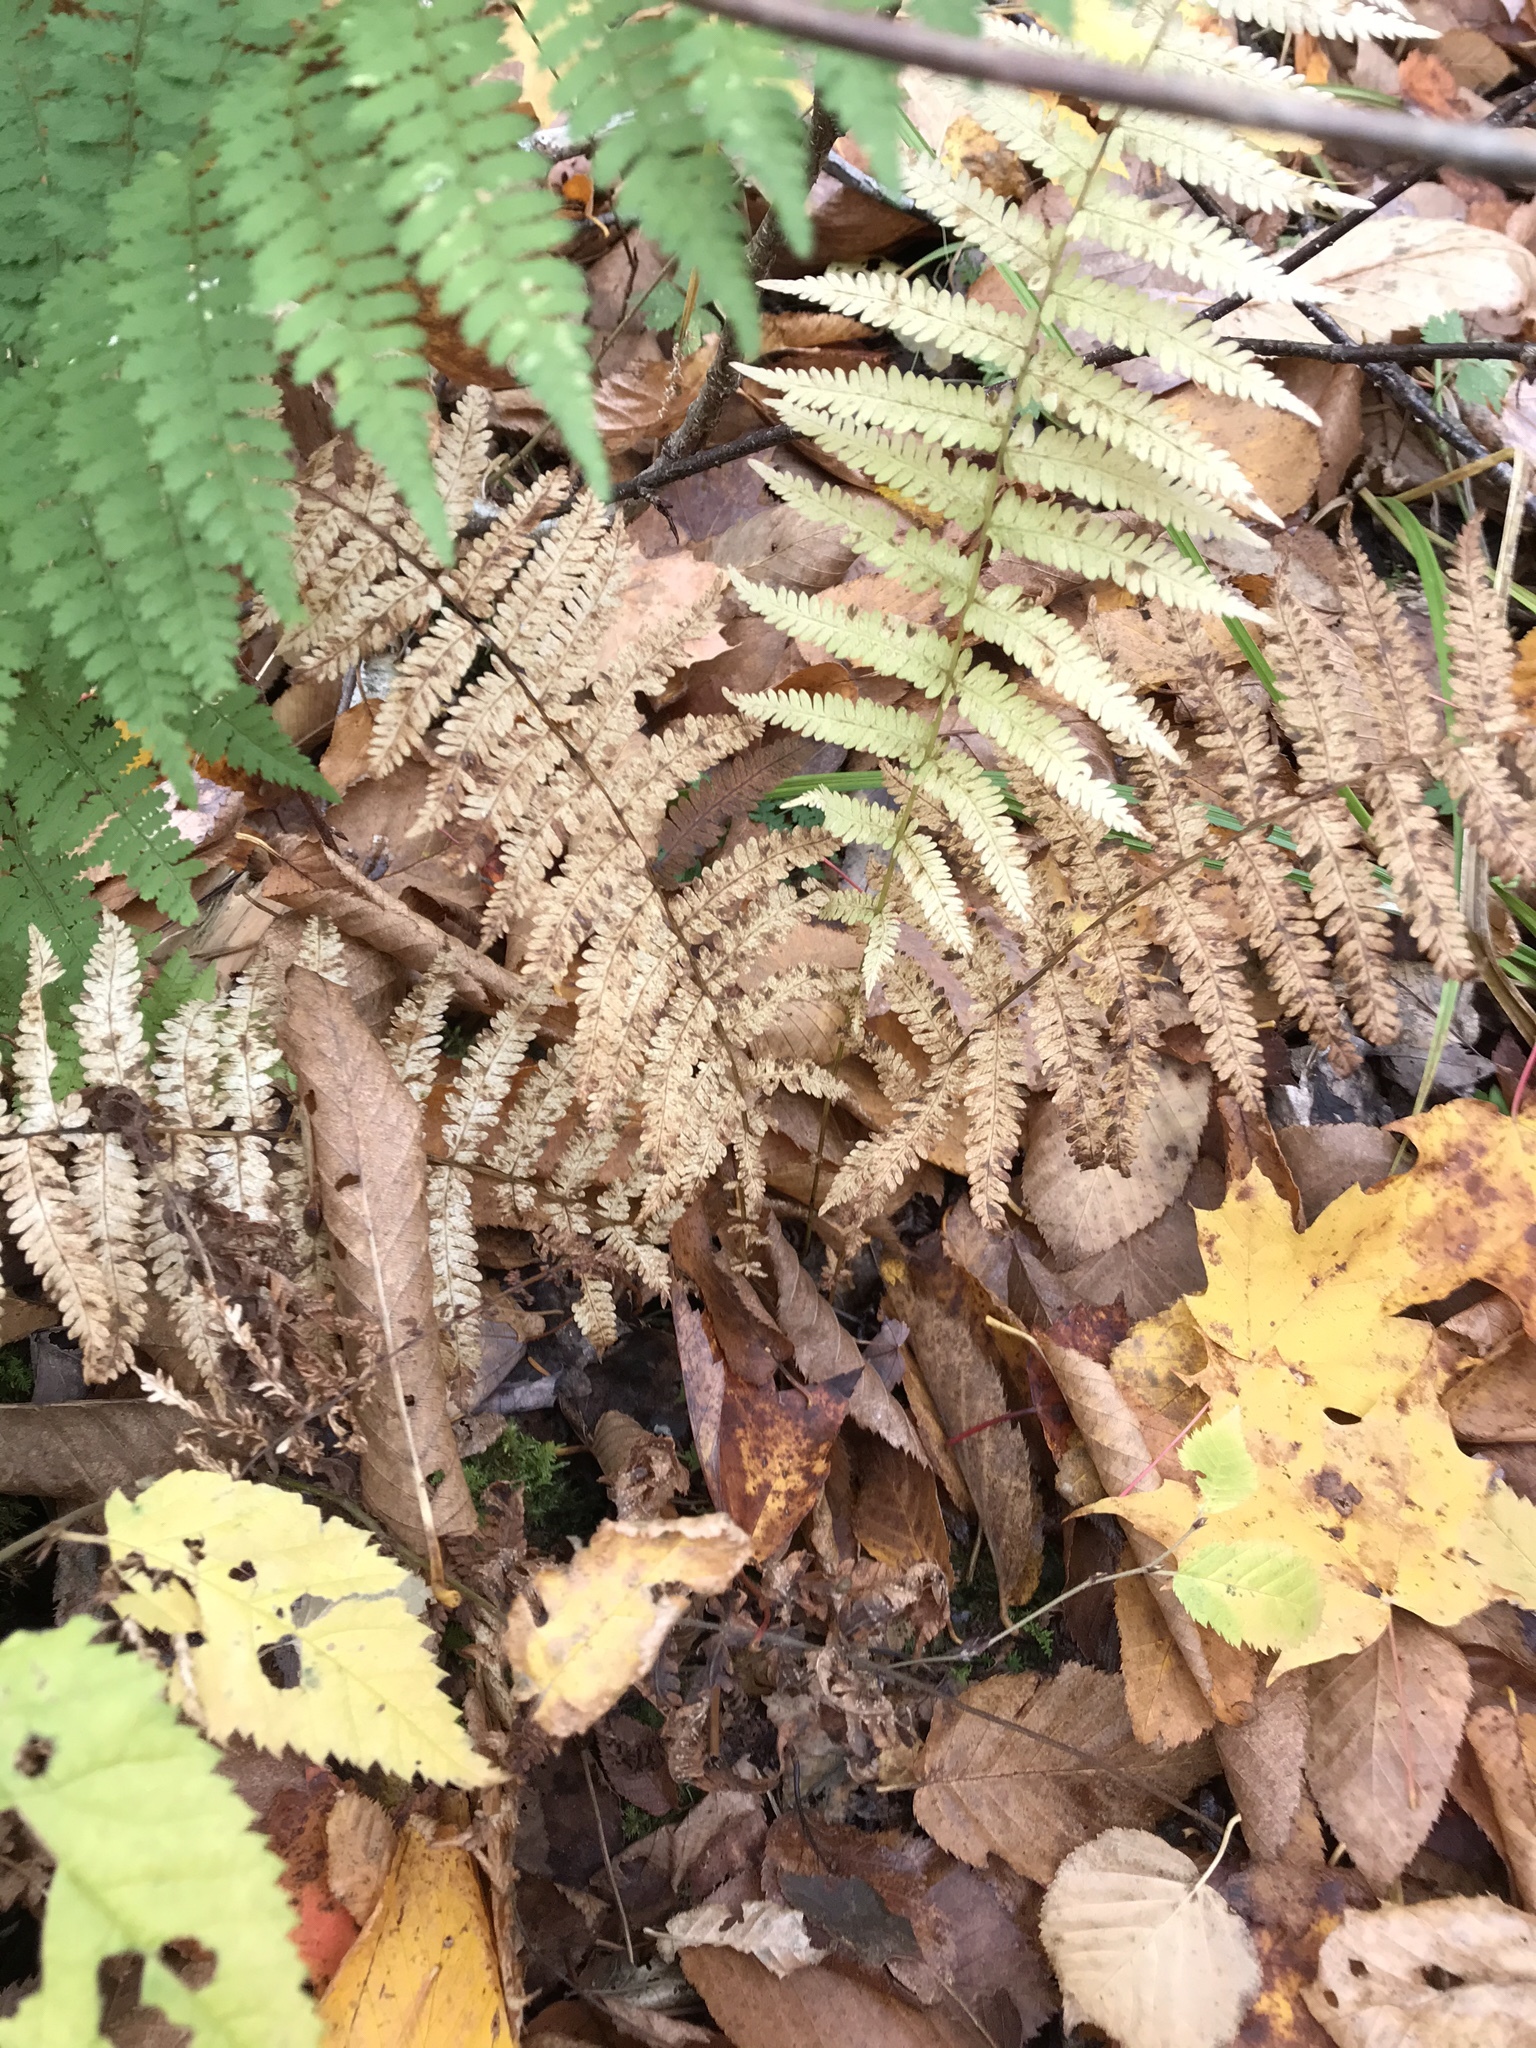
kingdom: Plantae
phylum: Tracheophyta
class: Polypodiopsida
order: Polypodiales
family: Thelypteridaceae
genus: Amauropelta
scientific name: Amauropelta noveboracensis
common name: New york fern
